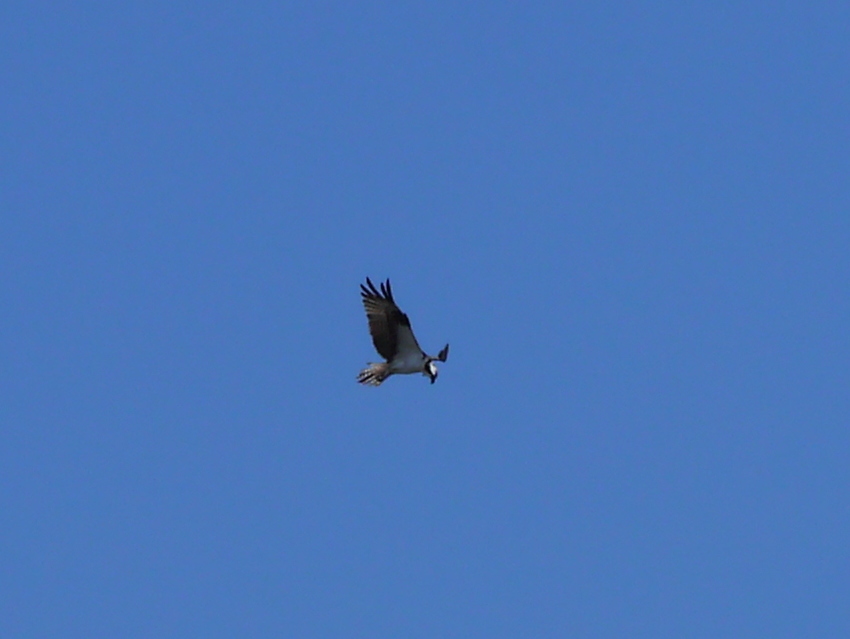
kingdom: Animalia
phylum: Chordata
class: Aves
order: Accipitriformes
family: Pandionidae
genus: Pandion
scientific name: Pandion haliaetus
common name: Osprey
